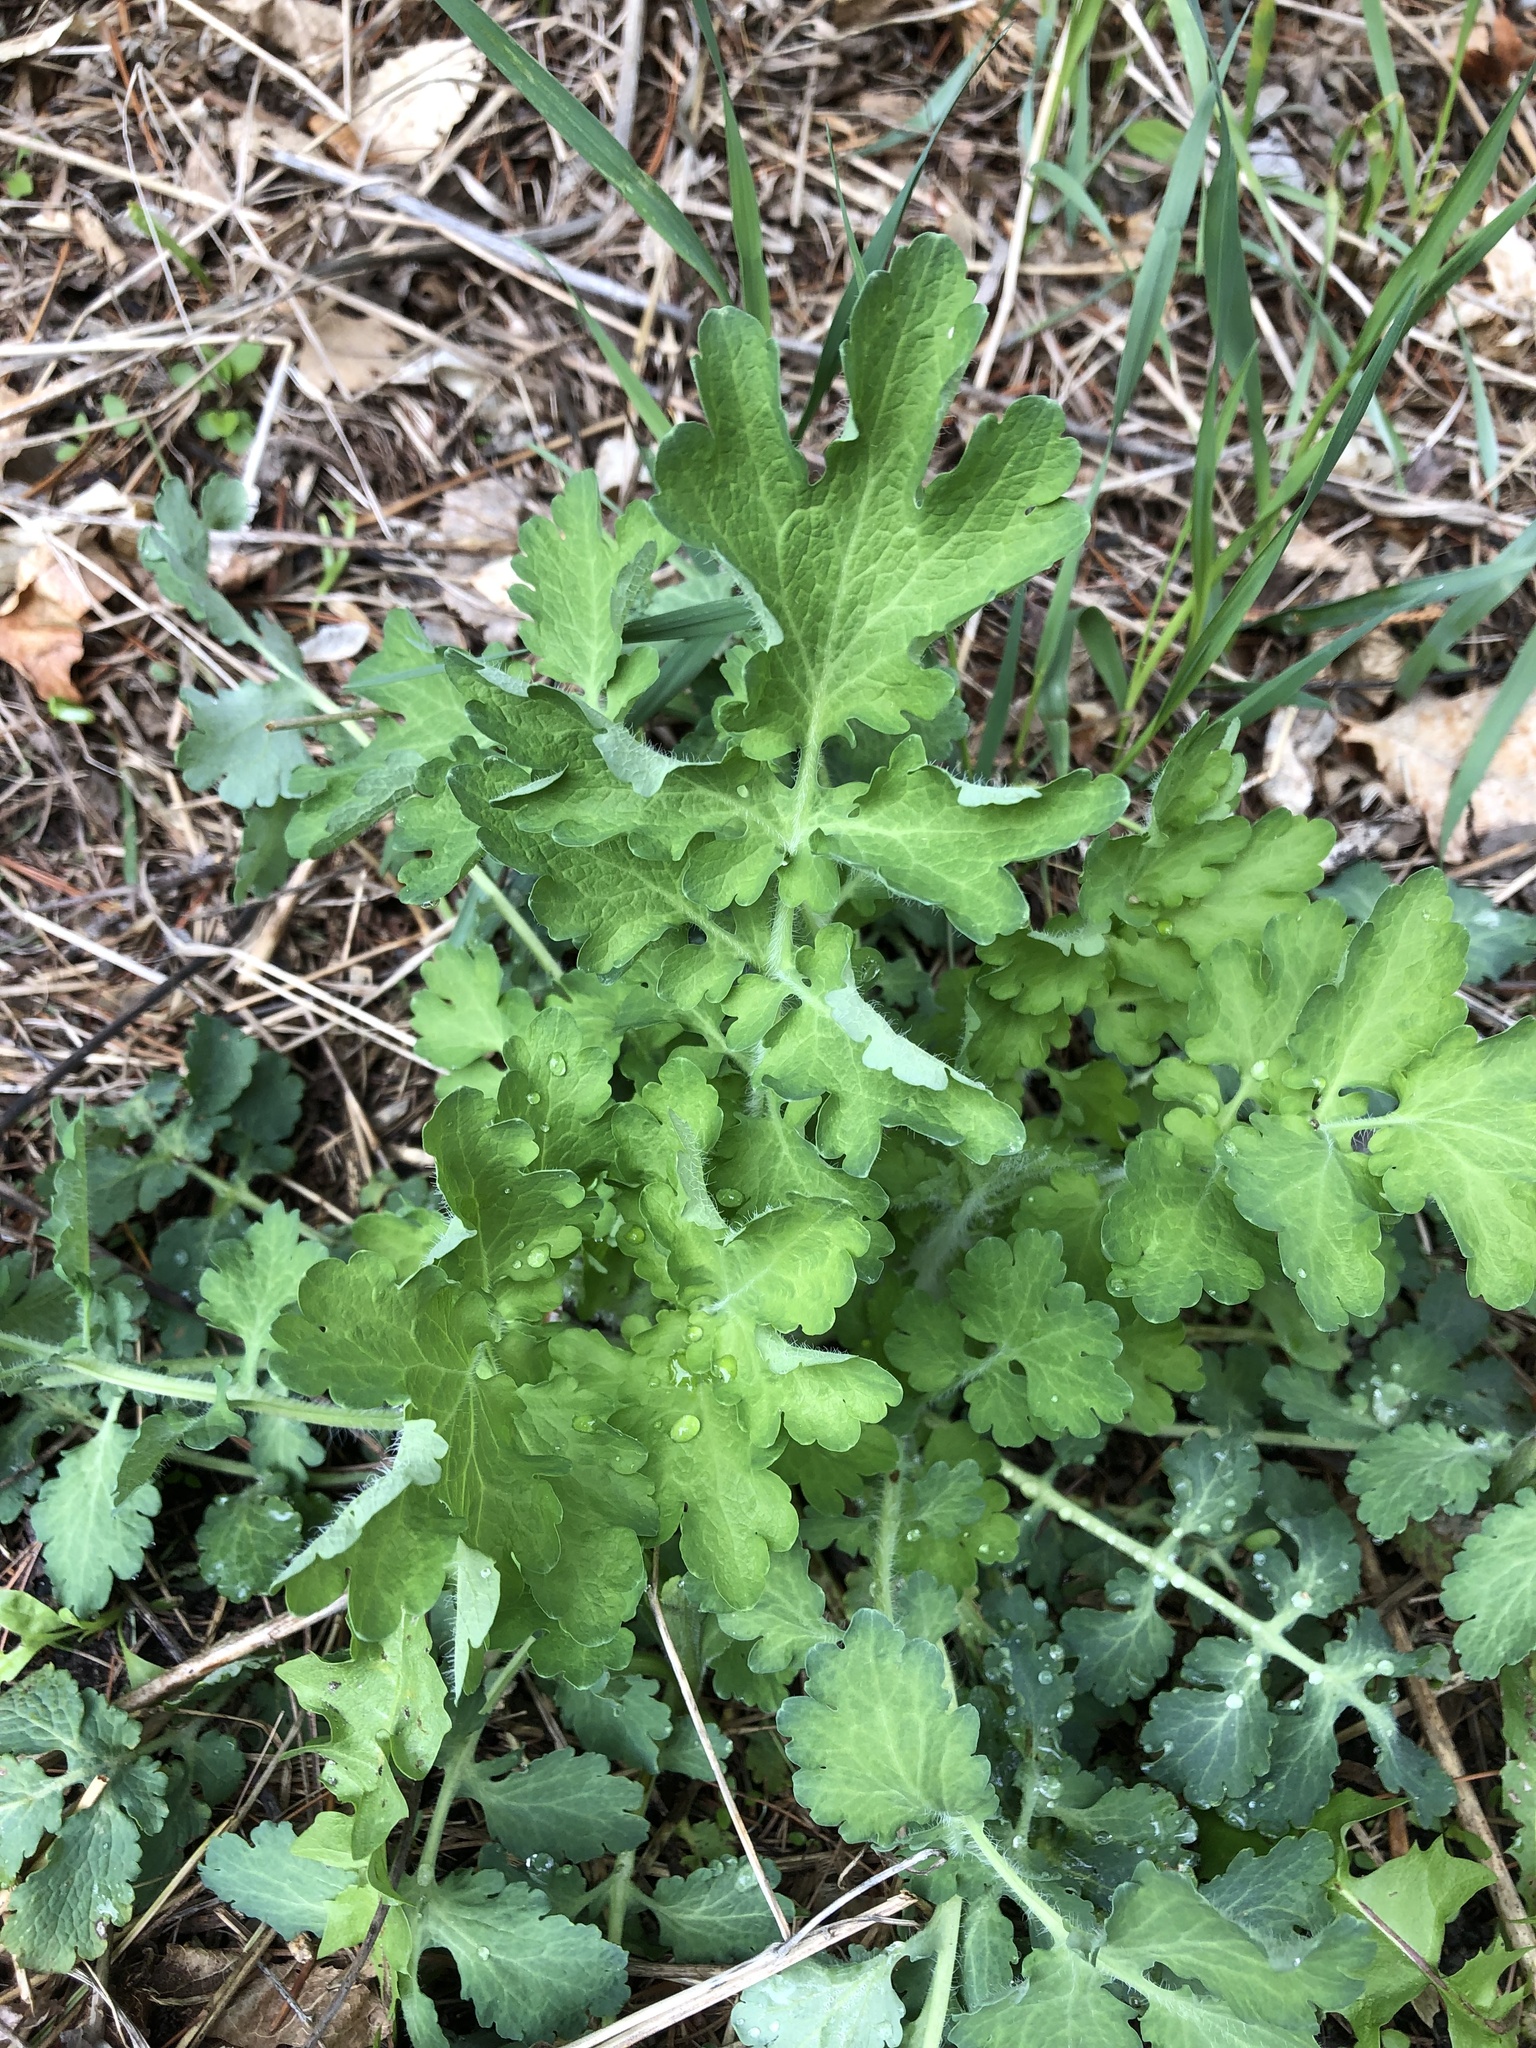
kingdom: Plantae
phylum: Tracheophyta
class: Magnoliopsida
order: Ranunculales
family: Papaveraceae
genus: Chelidonium
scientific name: Chelidonium majus
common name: Greater celandine
